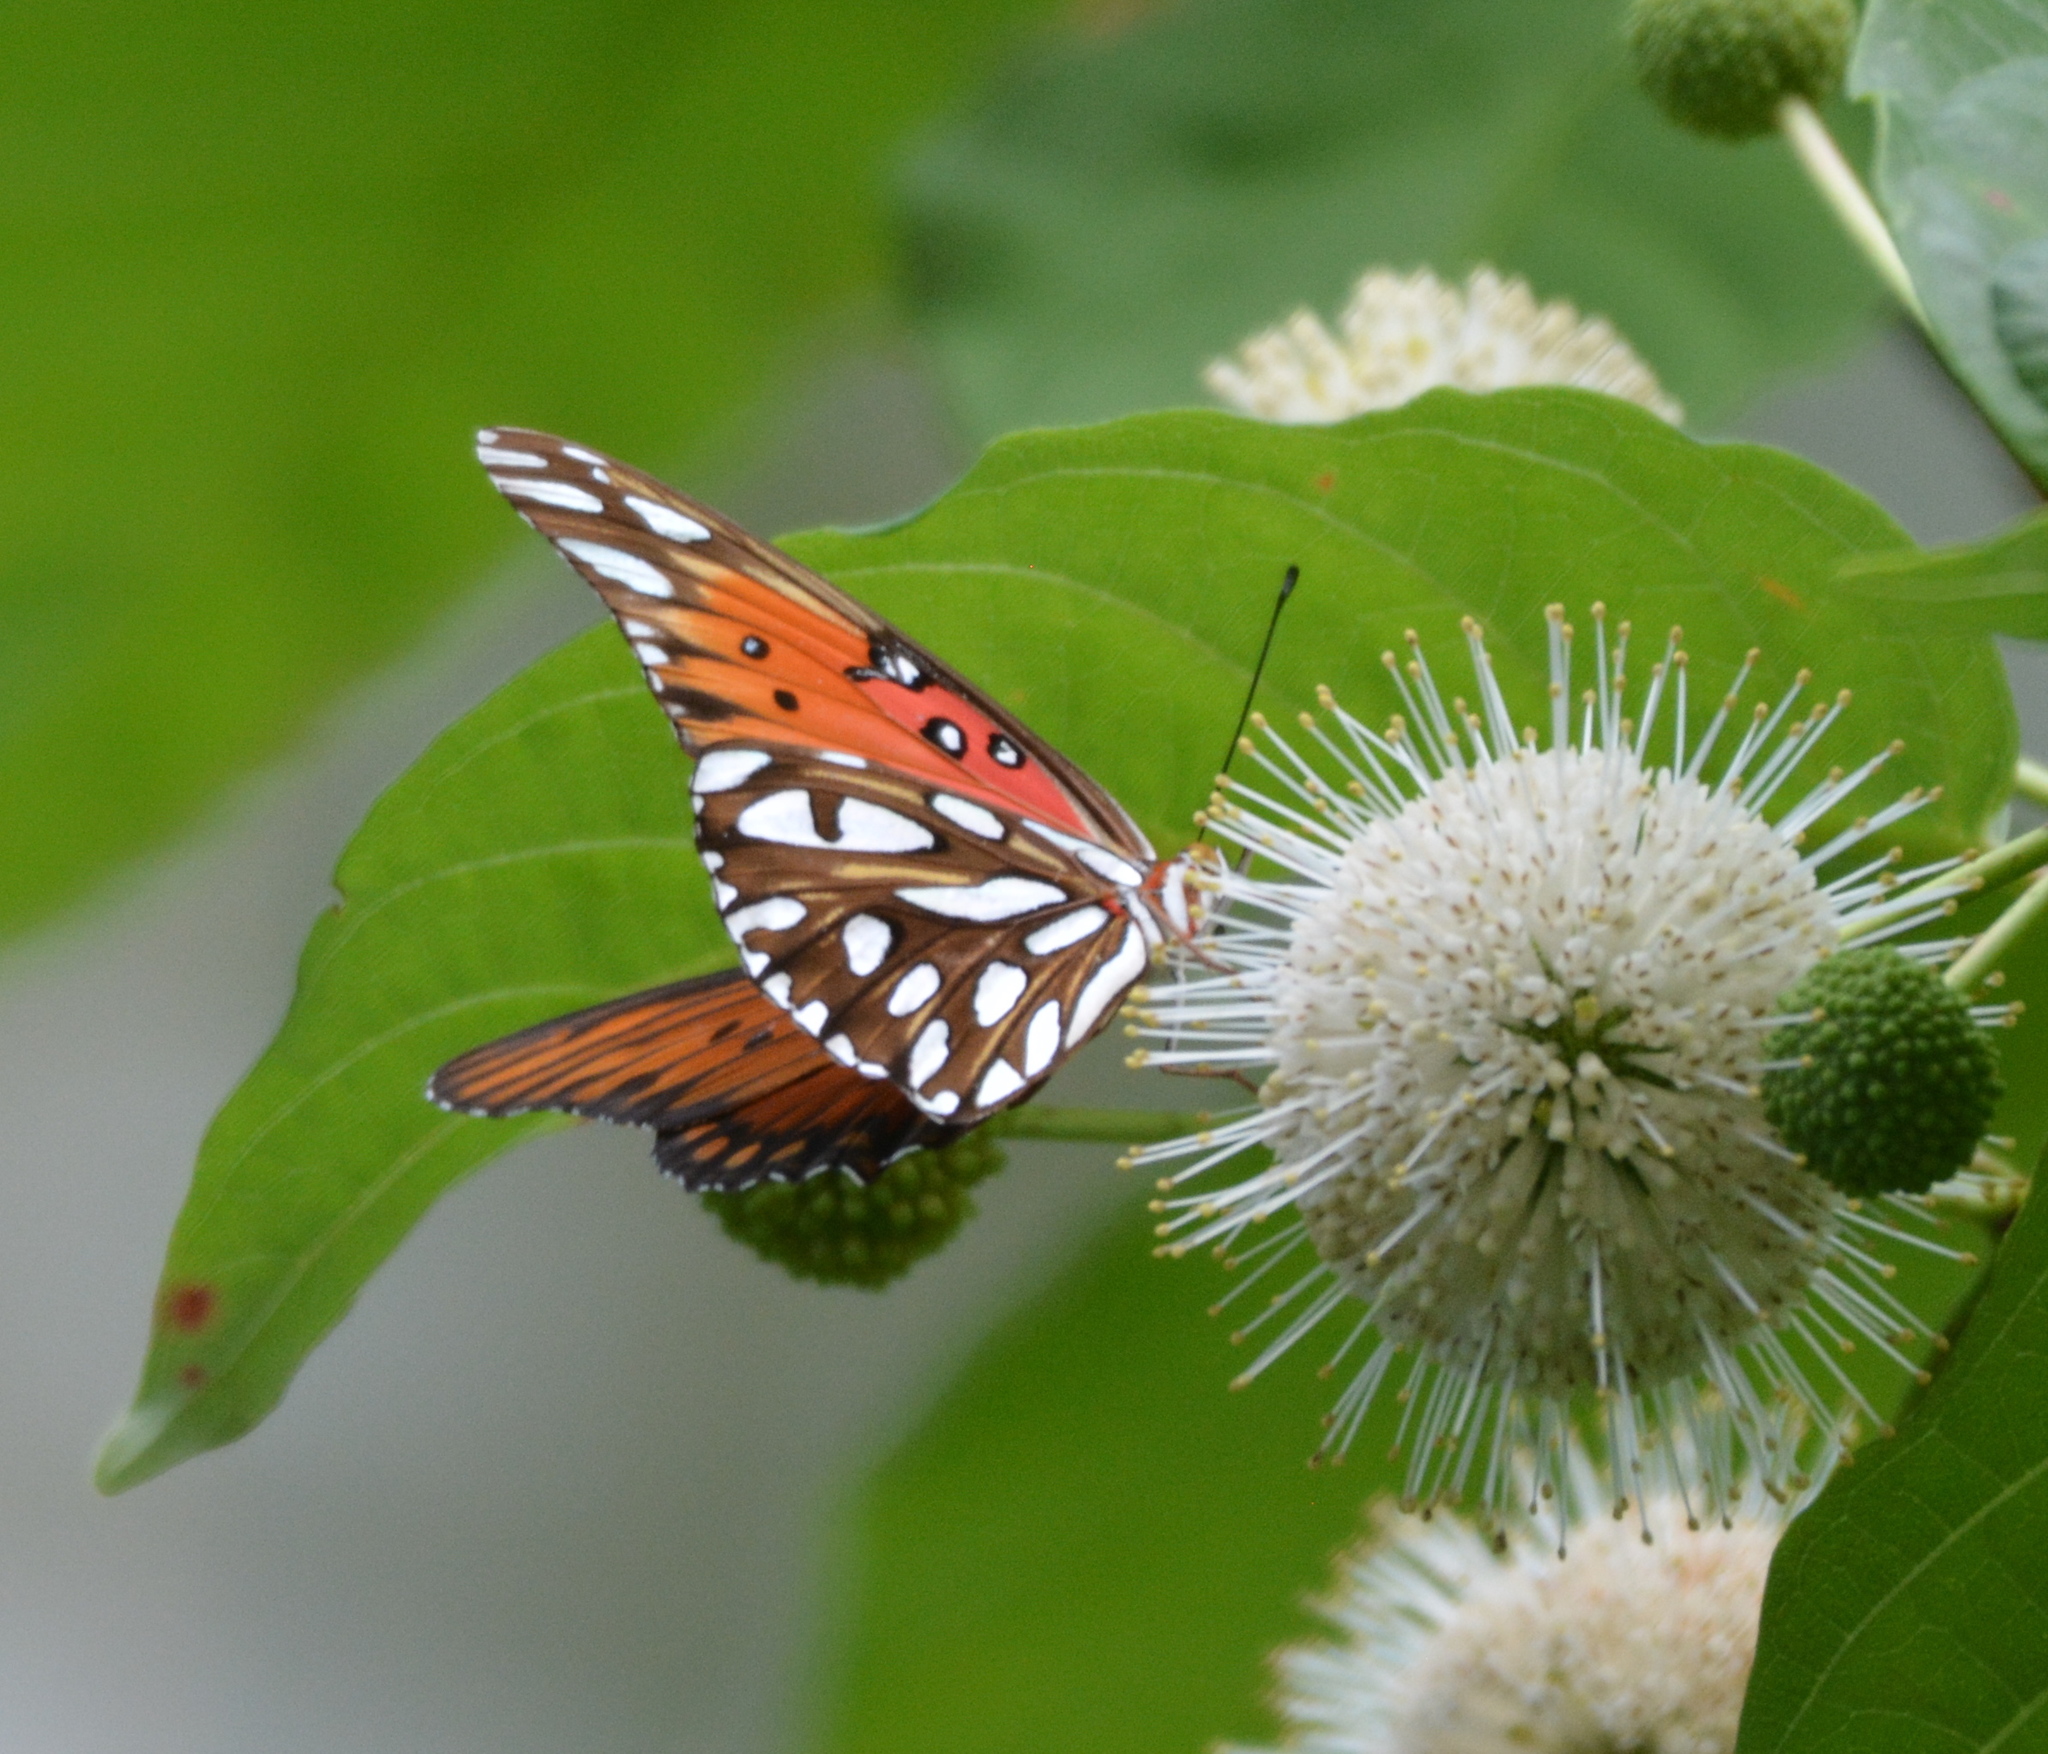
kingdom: Animalia
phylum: Arthropoda
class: Insecta
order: Lepidoptera
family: Nymphalidae
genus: Dione
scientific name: Dione vanillae
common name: Gulf fritillary
